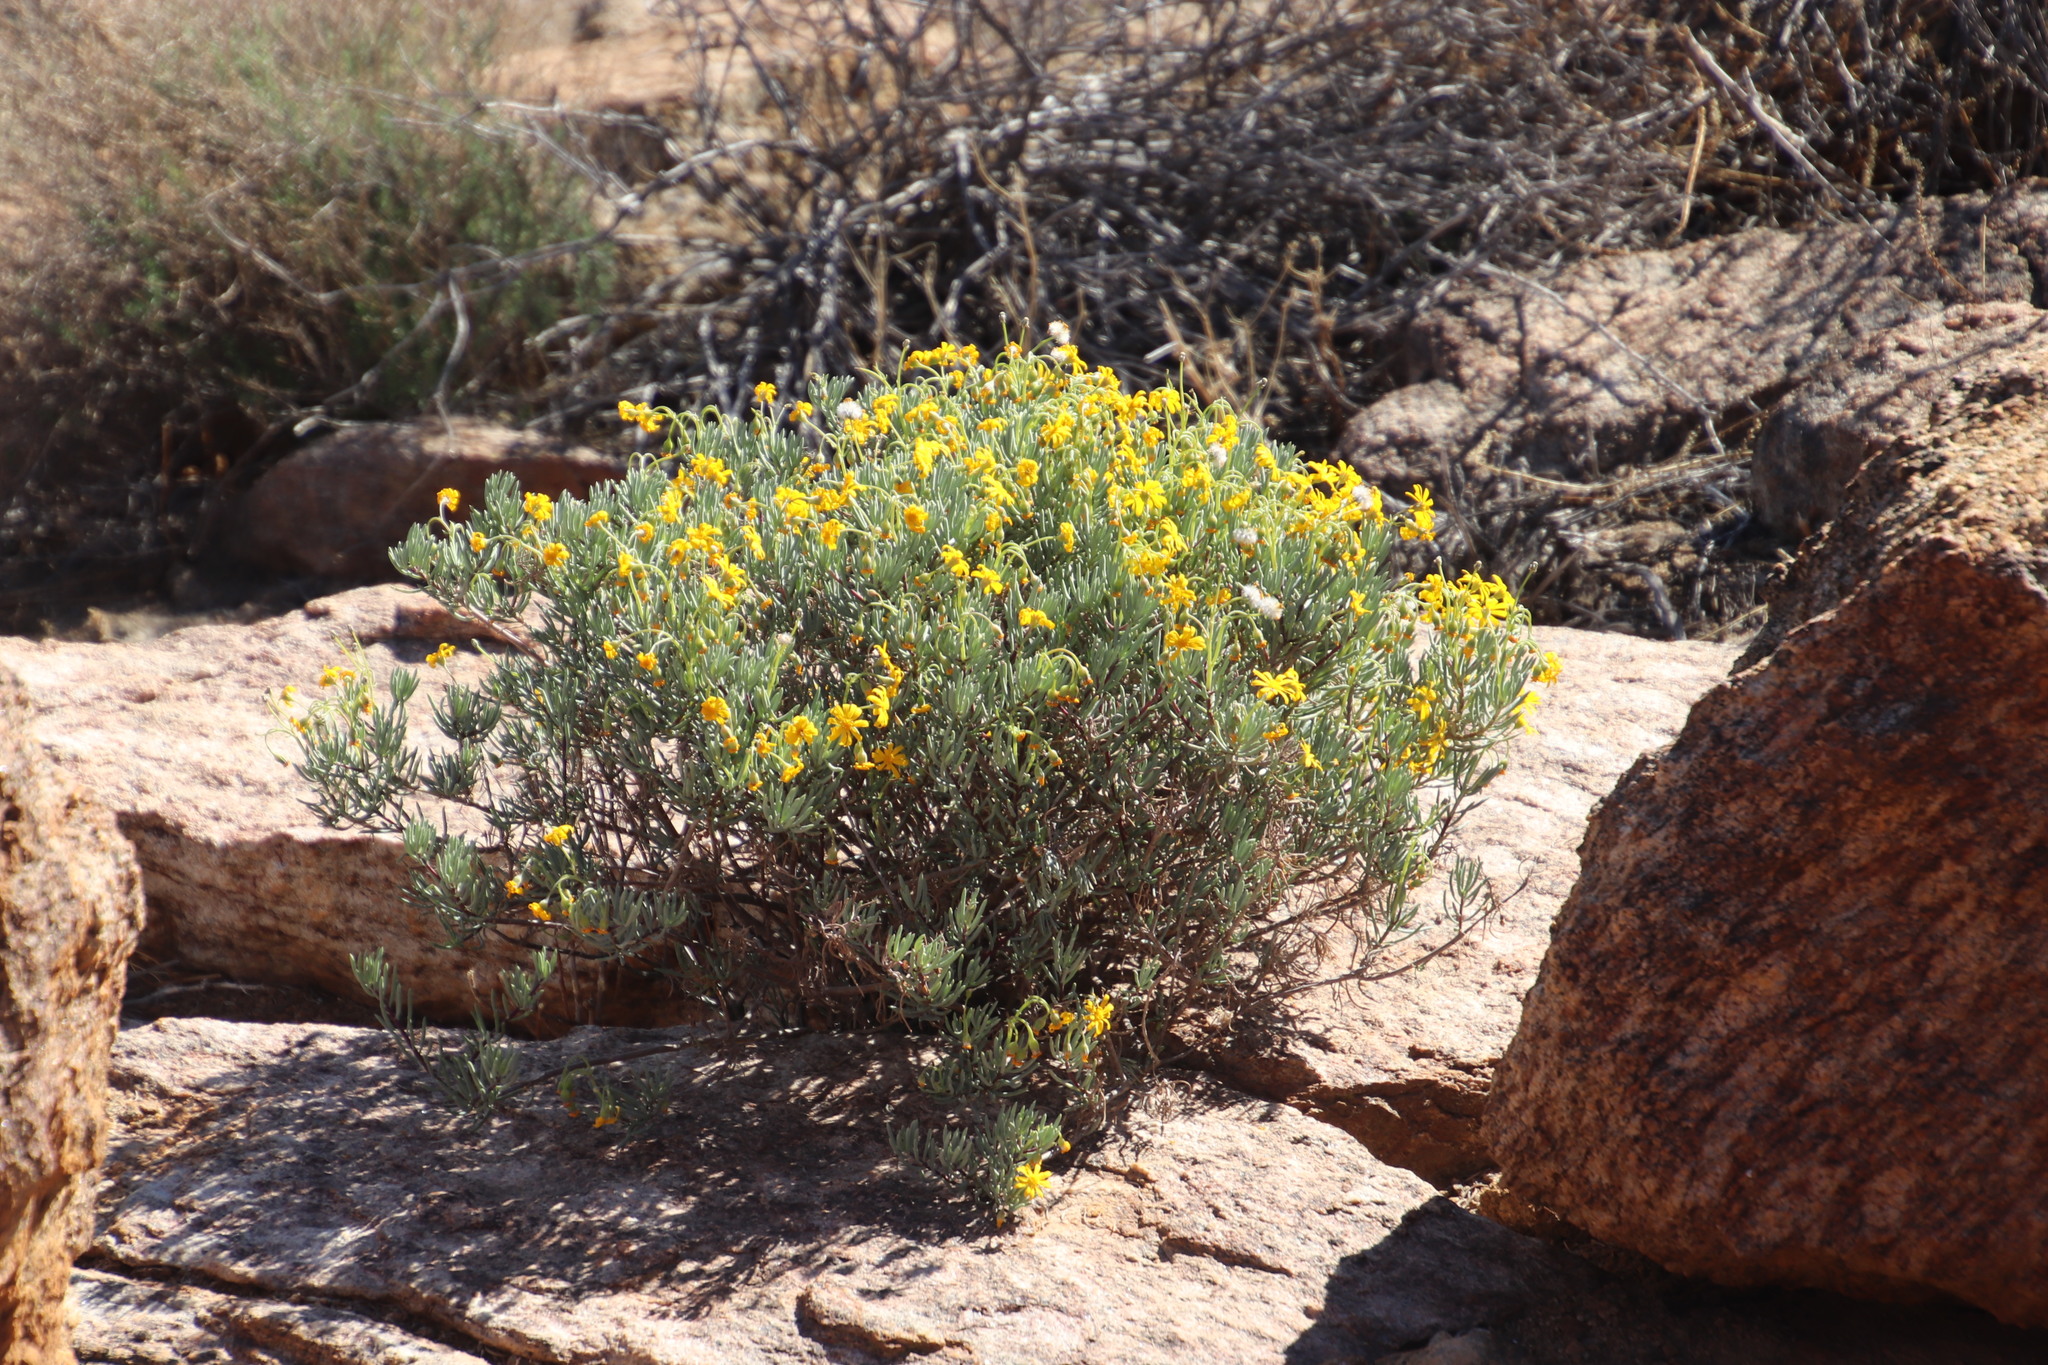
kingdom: Plantae
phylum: Tracheophyta
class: Magnoliopsida
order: Asterales
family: Asteraceae
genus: Crassothonna
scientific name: Crassothonna cylindrica
